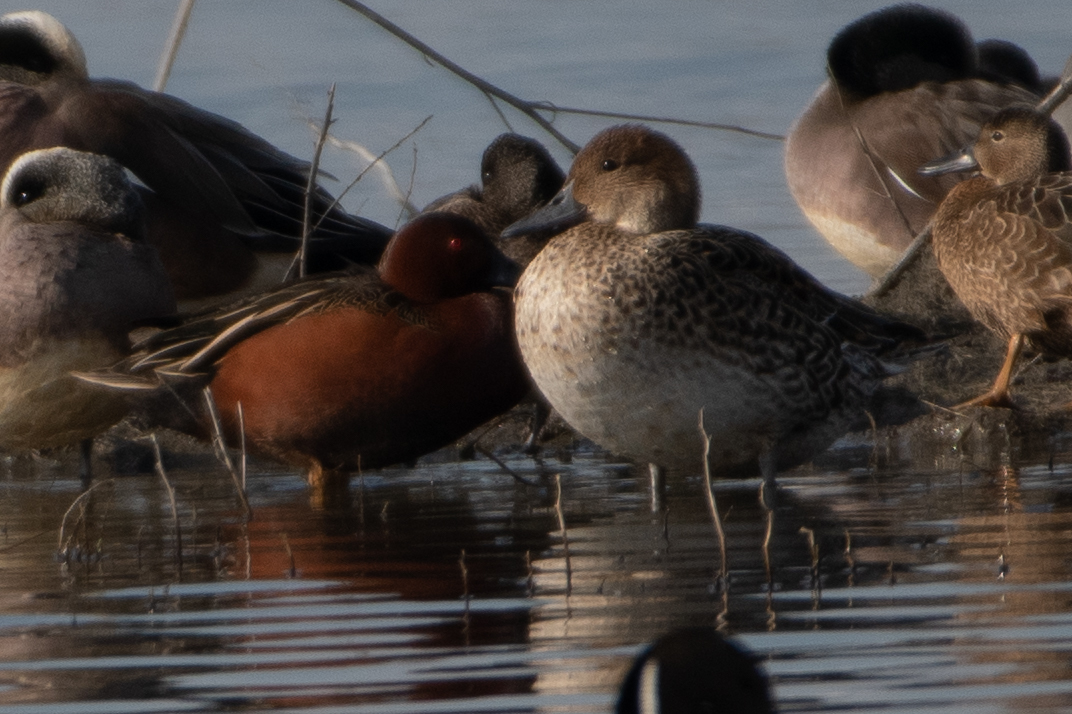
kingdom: Animalia
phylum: Chordata
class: Aves
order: Anseriformes
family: Anatidae
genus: Spatula
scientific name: Spatula cyanoptera
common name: Cinnamon teal
